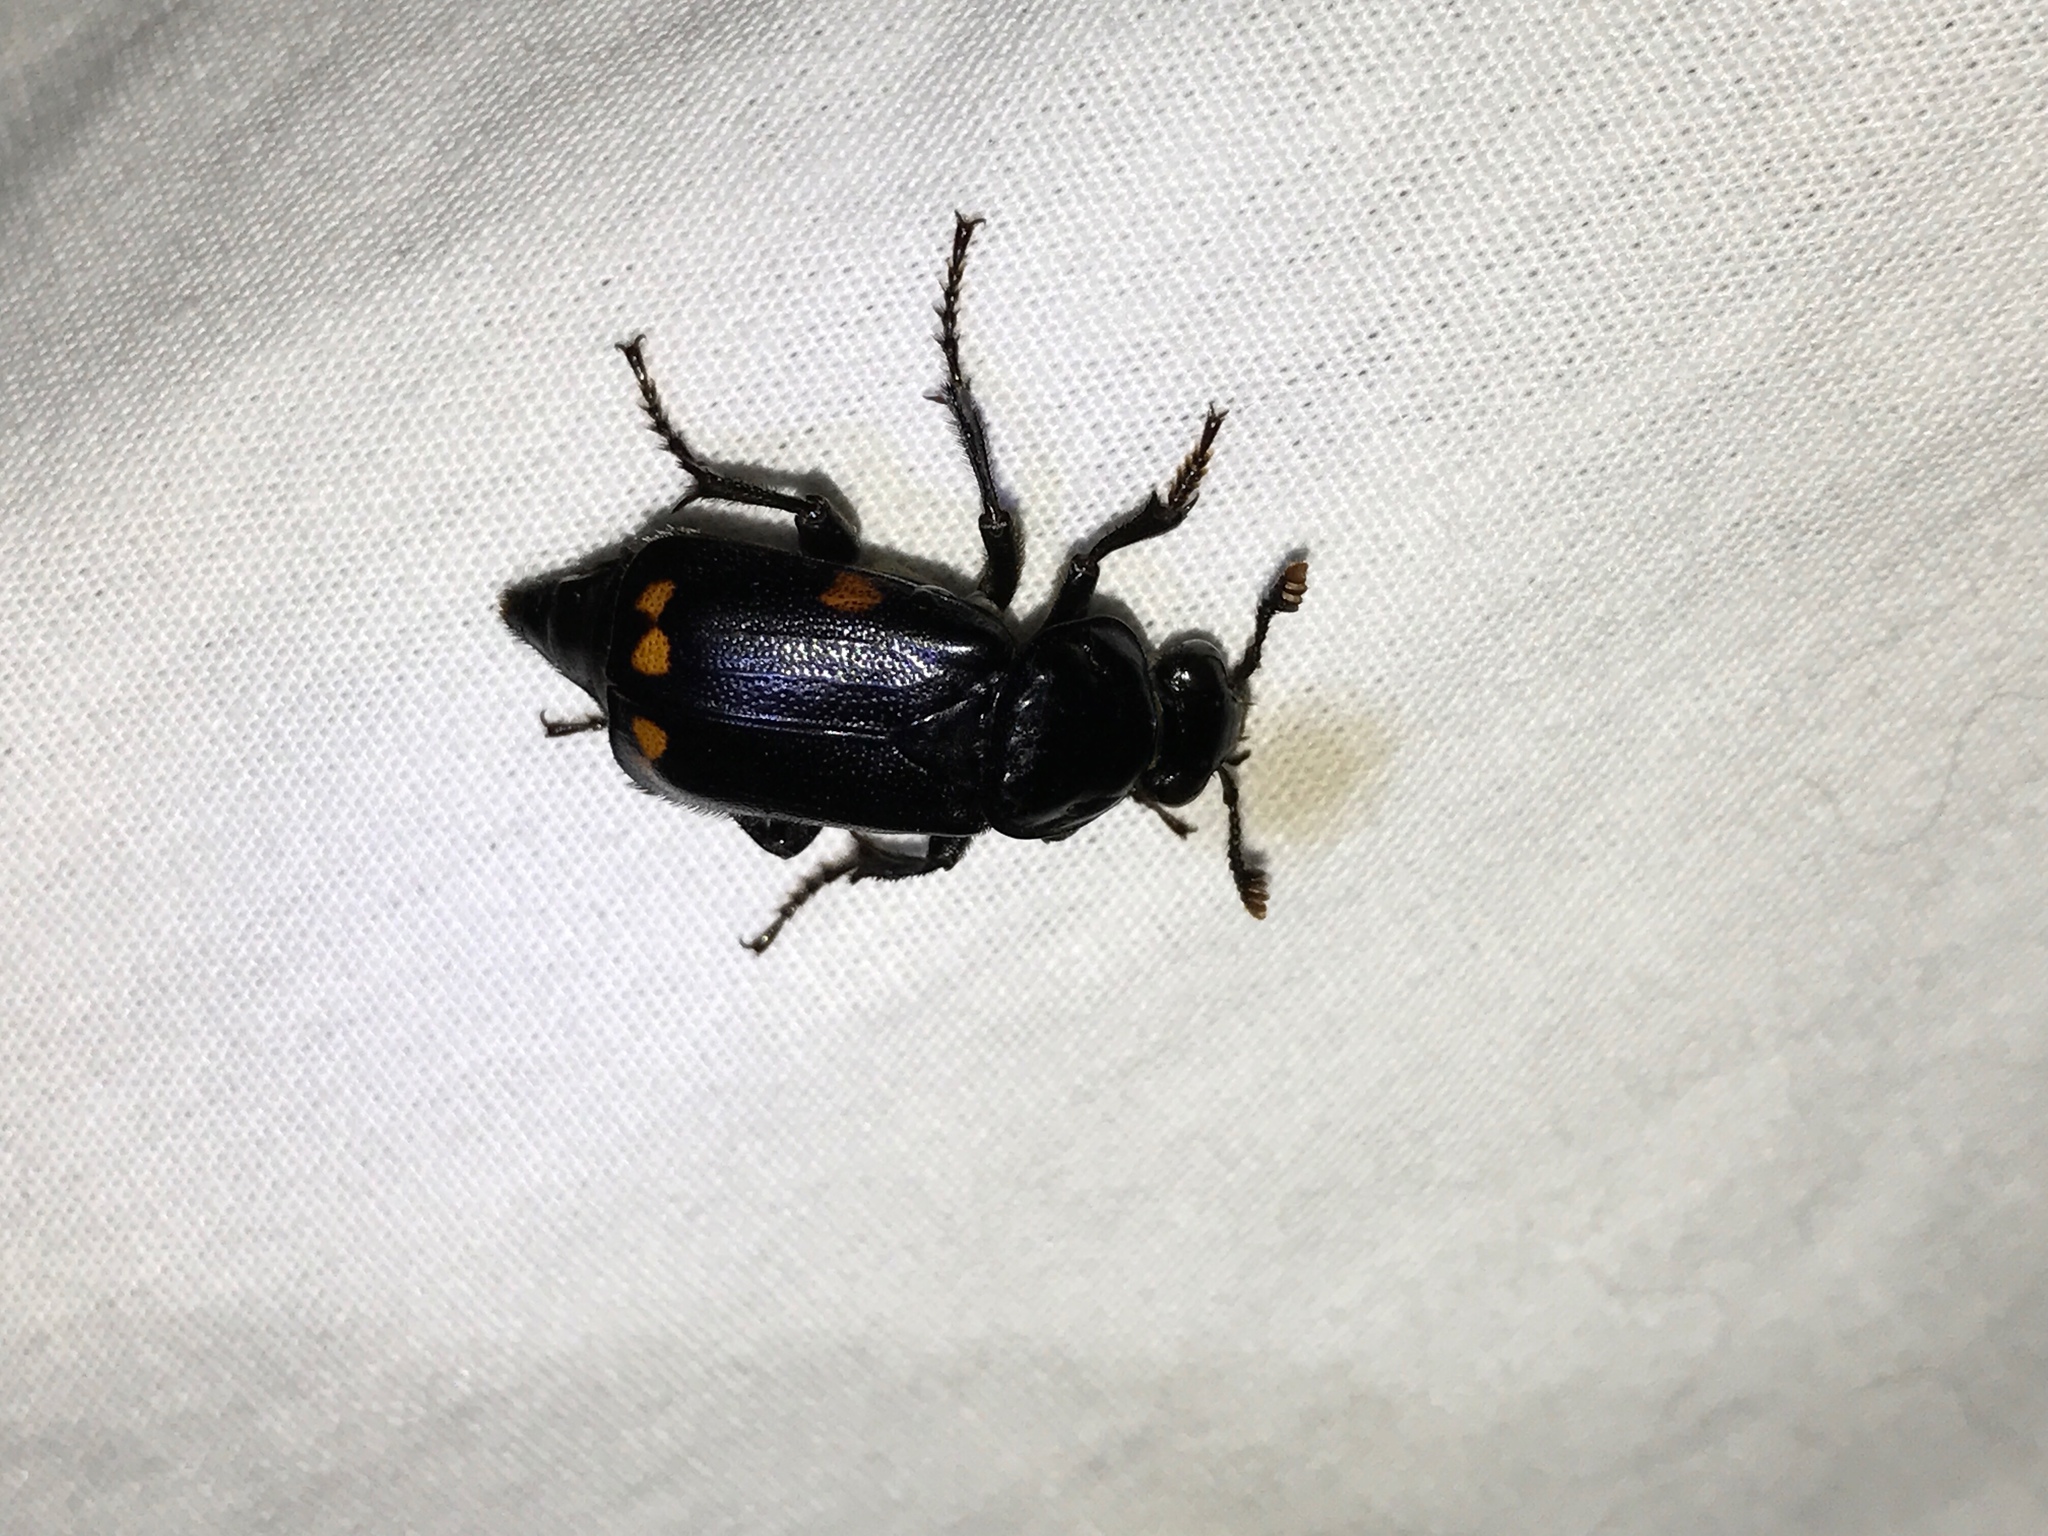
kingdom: Animalia
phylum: Arthropoda
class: Insecta
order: Coleoptera
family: Staphylinidae
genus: Nicrophorus
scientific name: Nicrophorus pustulatus
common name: Pustulated carrion beetle
